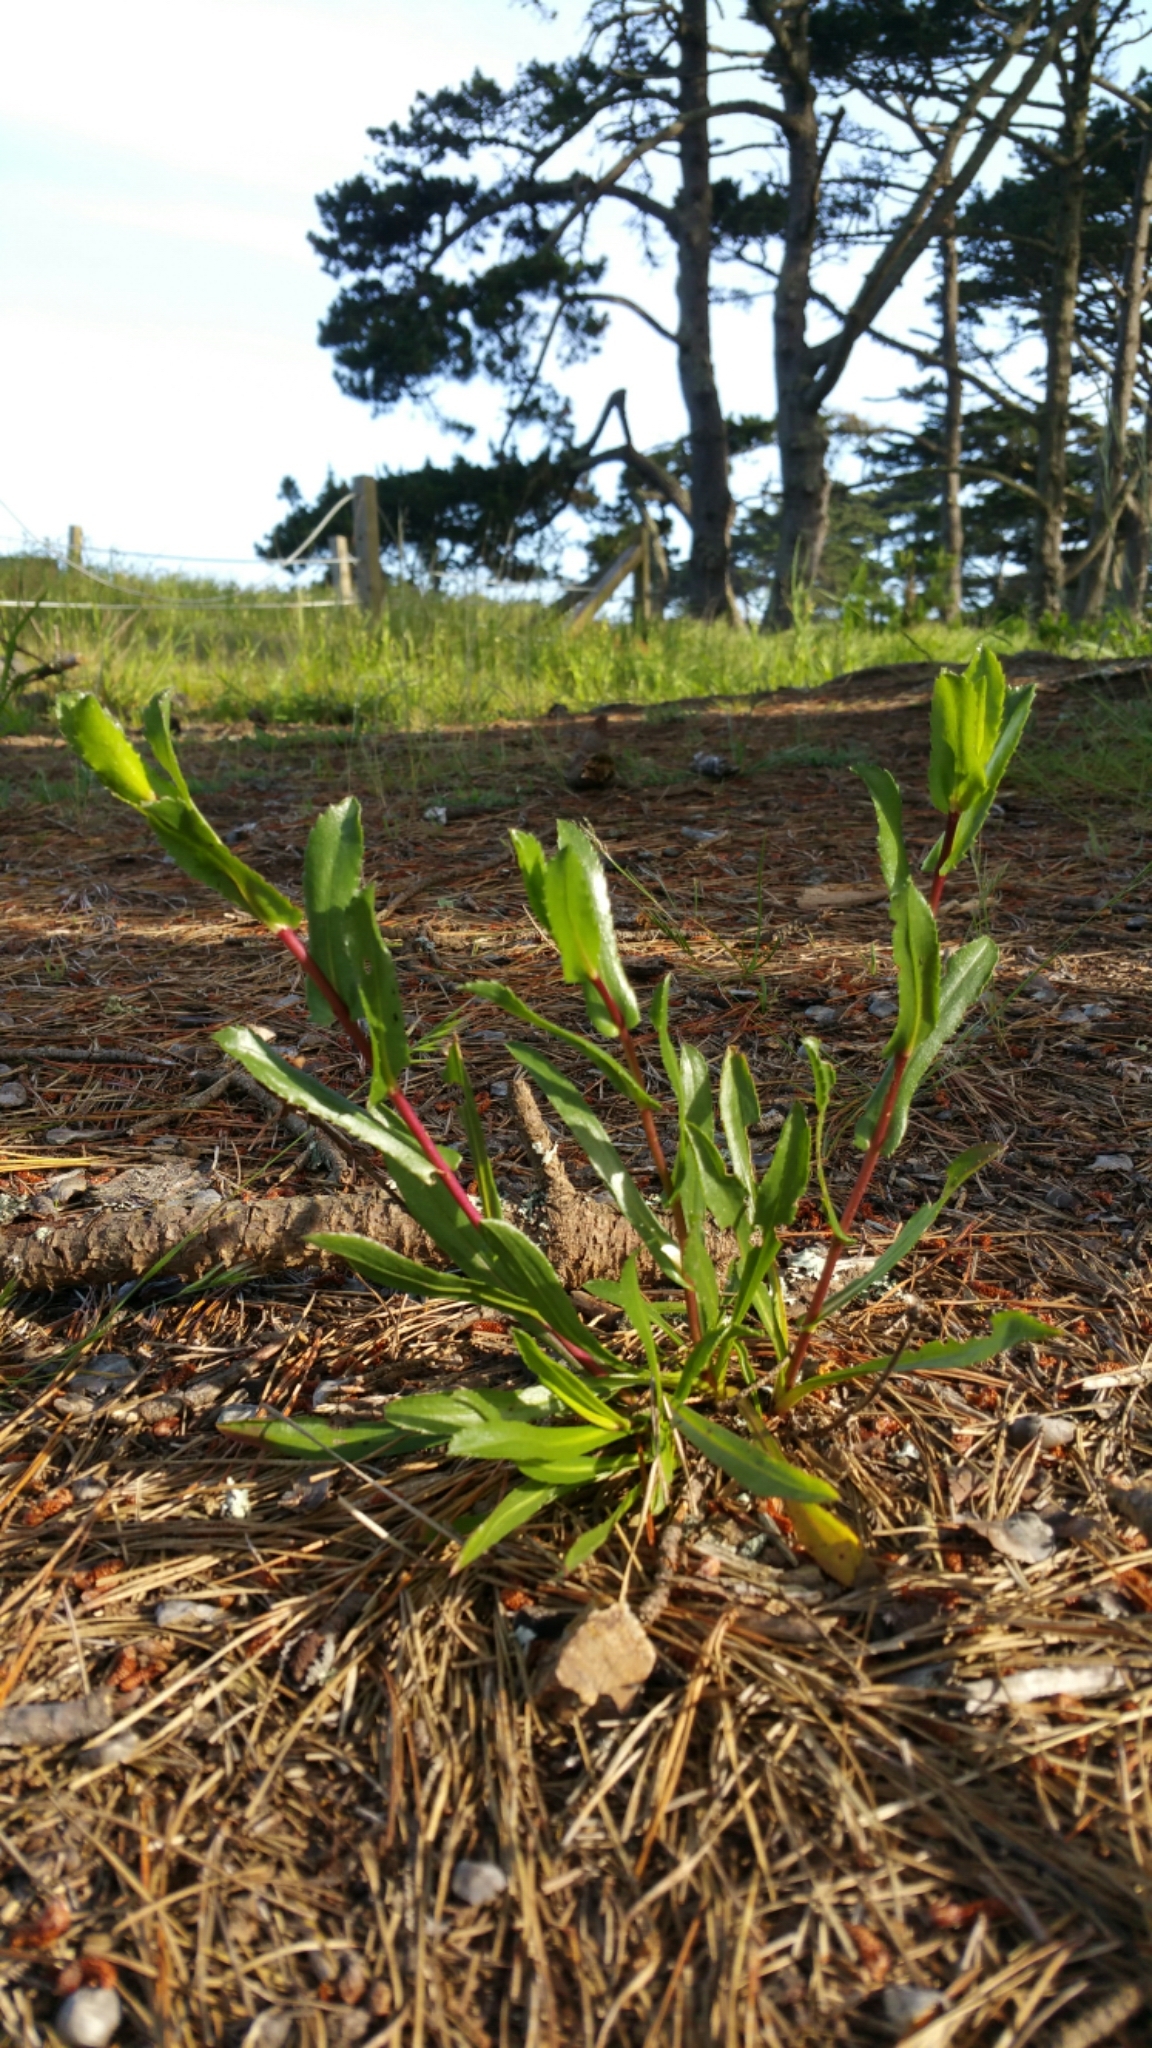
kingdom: Plantae
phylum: Tracheophyta
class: Magnoliopsida
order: Asterales
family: Asteraceae
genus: Grindelia
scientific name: Grindelia hirsutula
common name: Hairy gumweed
